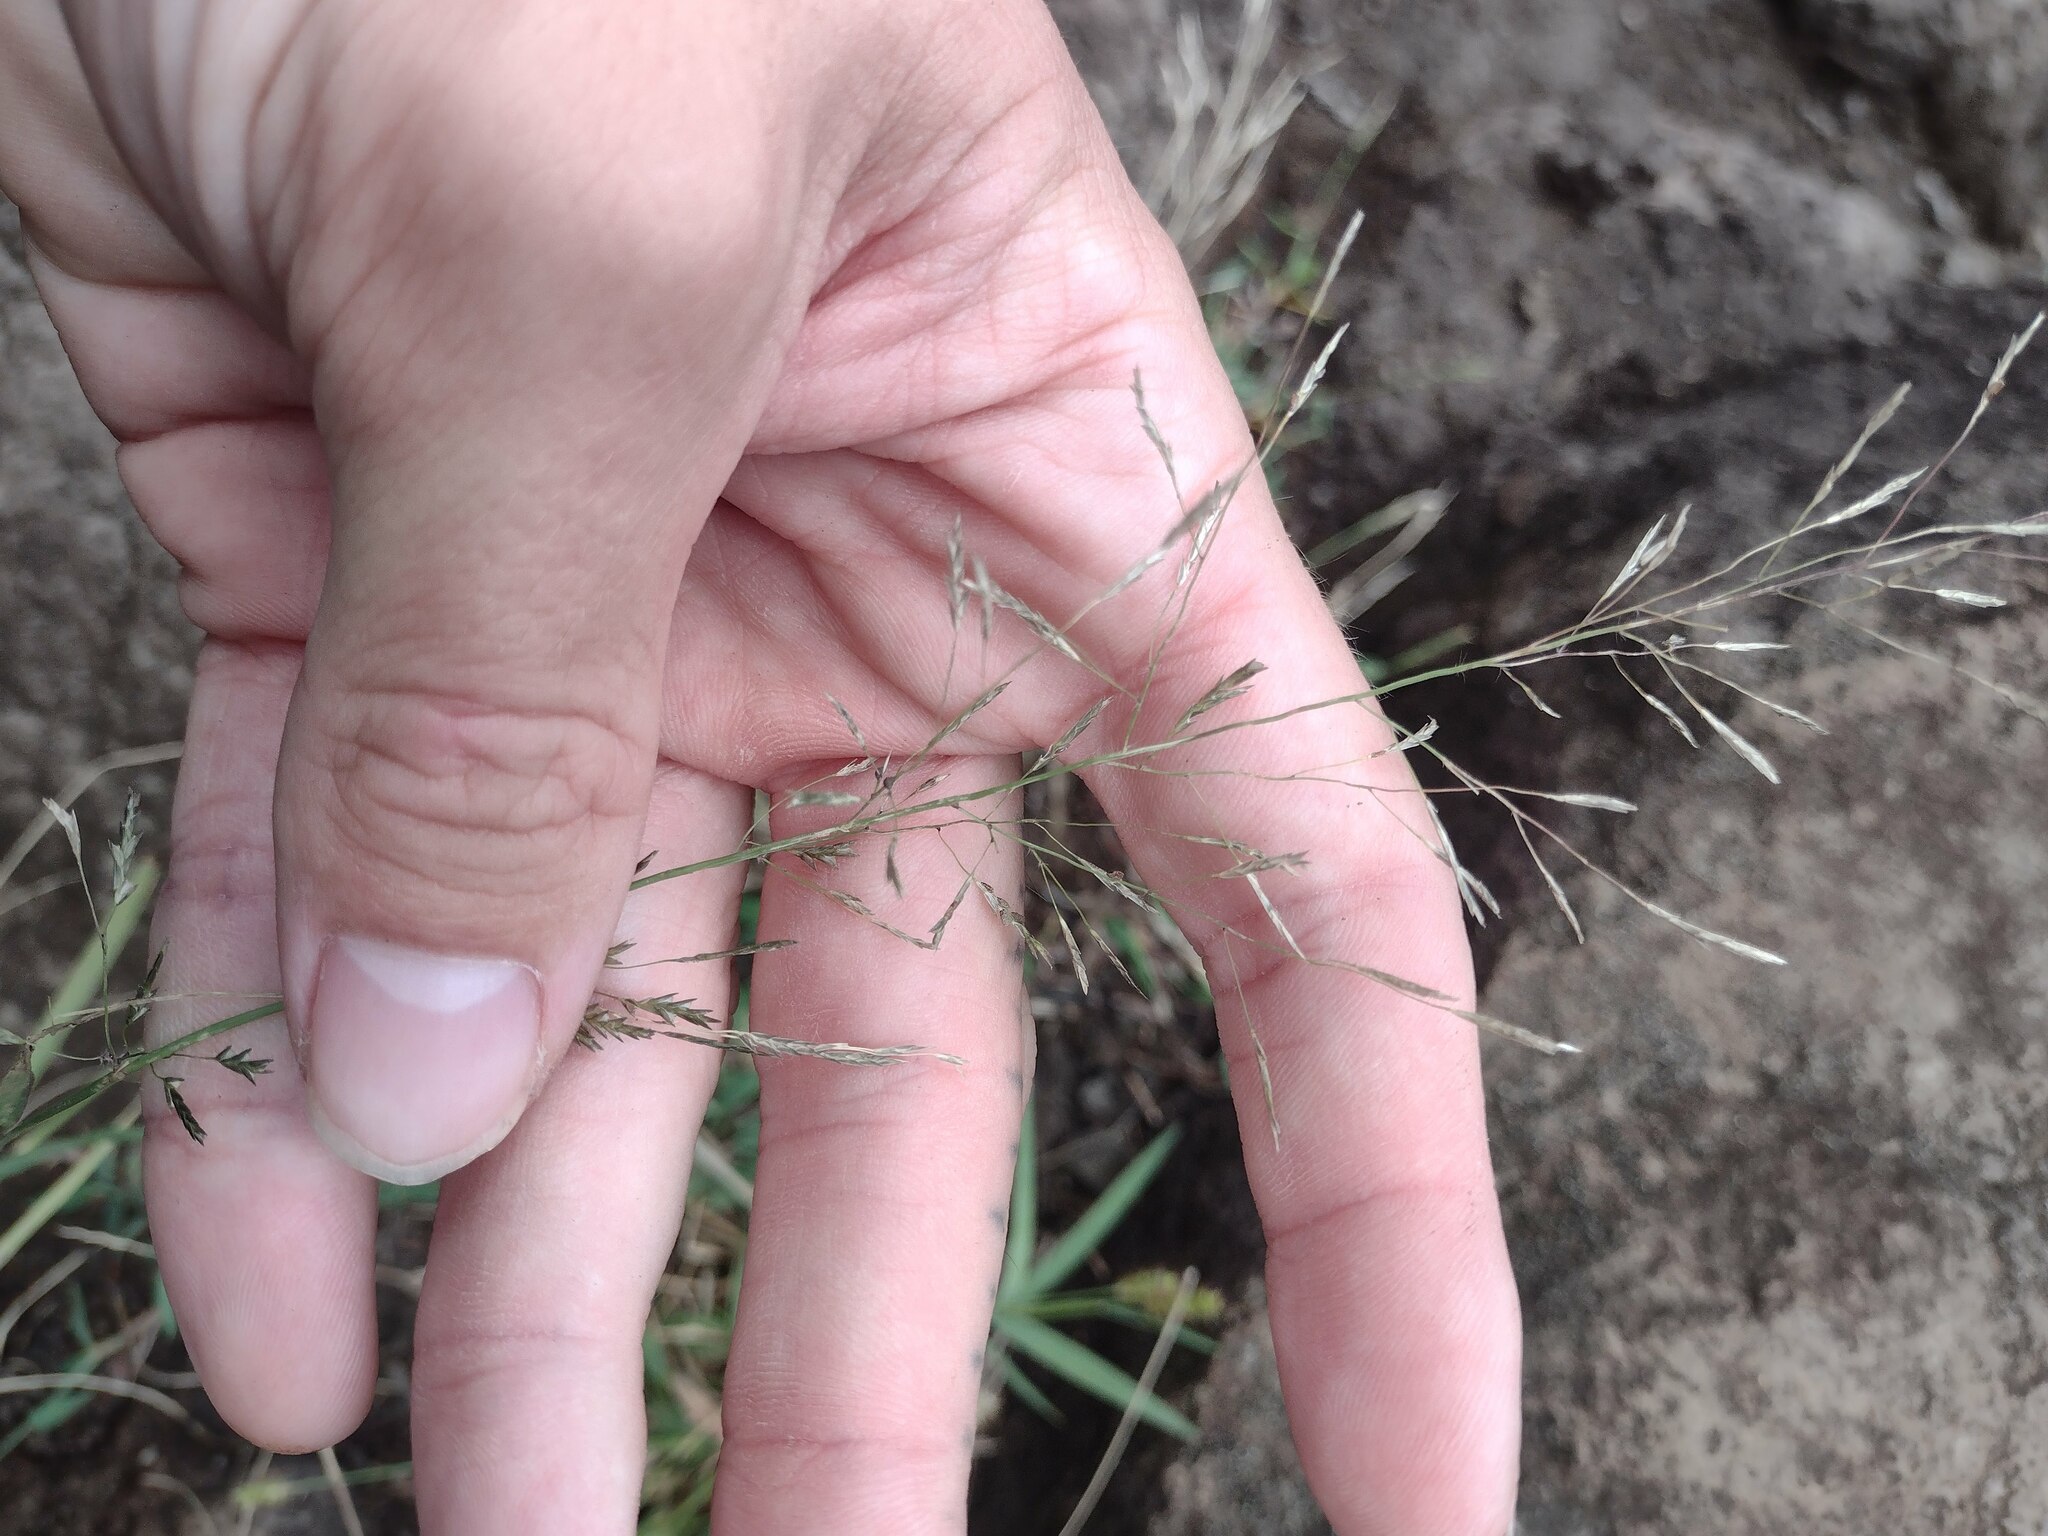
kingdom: Plantae
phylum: Tracheophyta
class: Liliopsida
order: Poales
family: Poaceae
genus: Eragrostis
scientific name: Eragrostis tenuifolia
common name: Elastic grass
